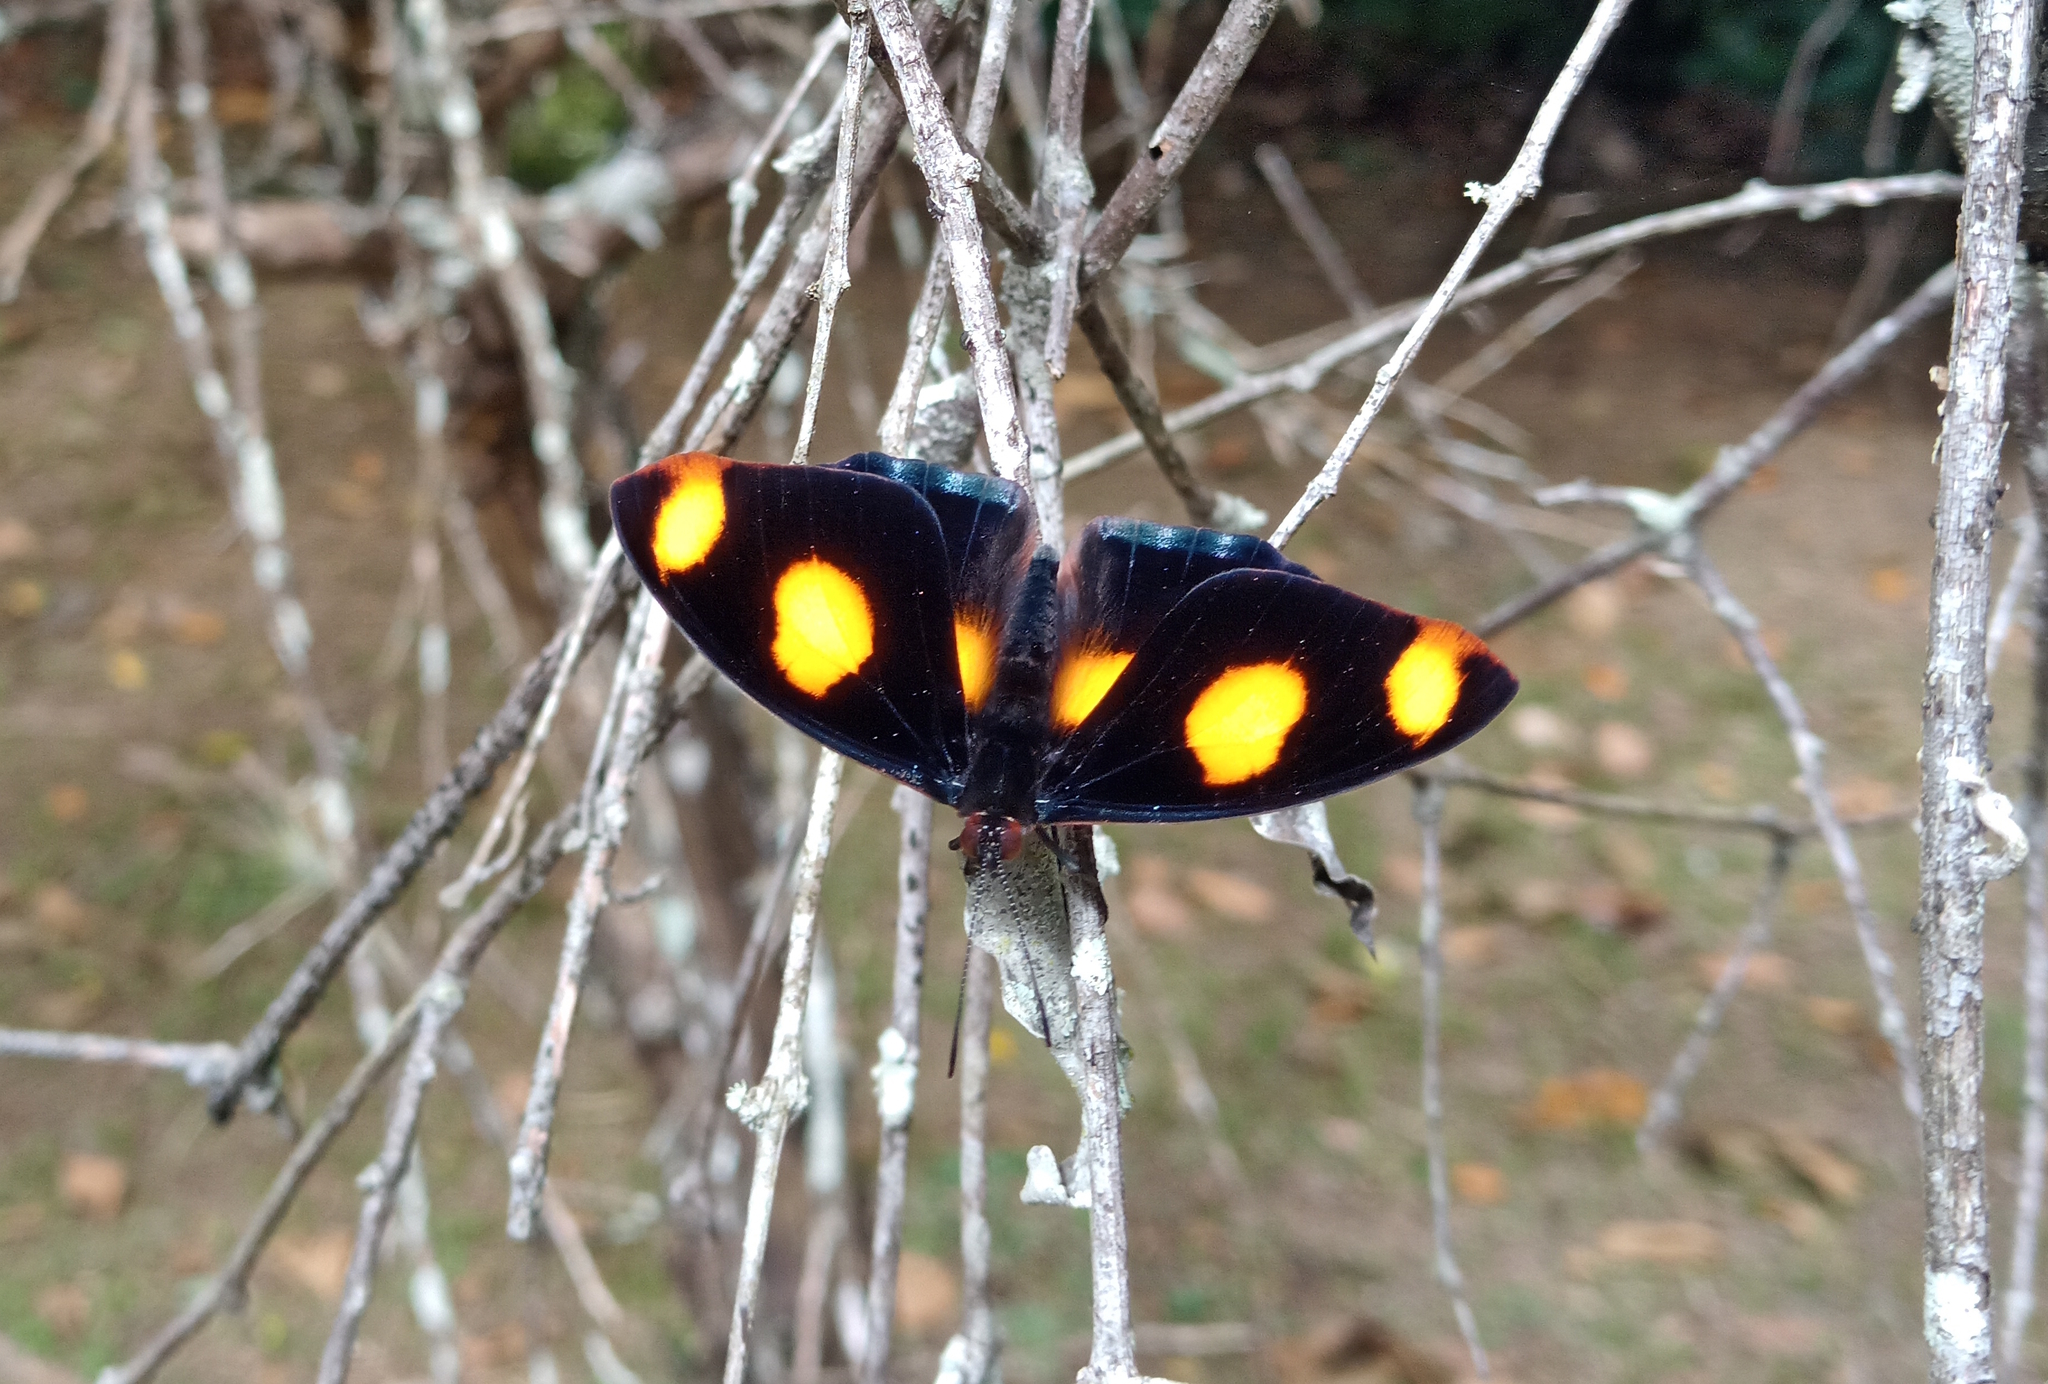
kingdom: Animalia
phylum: Arthropoda
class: Insecta
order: Lepidoptera
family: Nymphalidae
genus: Catonephele
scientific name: Catonephele numilia
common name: Blue-frosted banner
